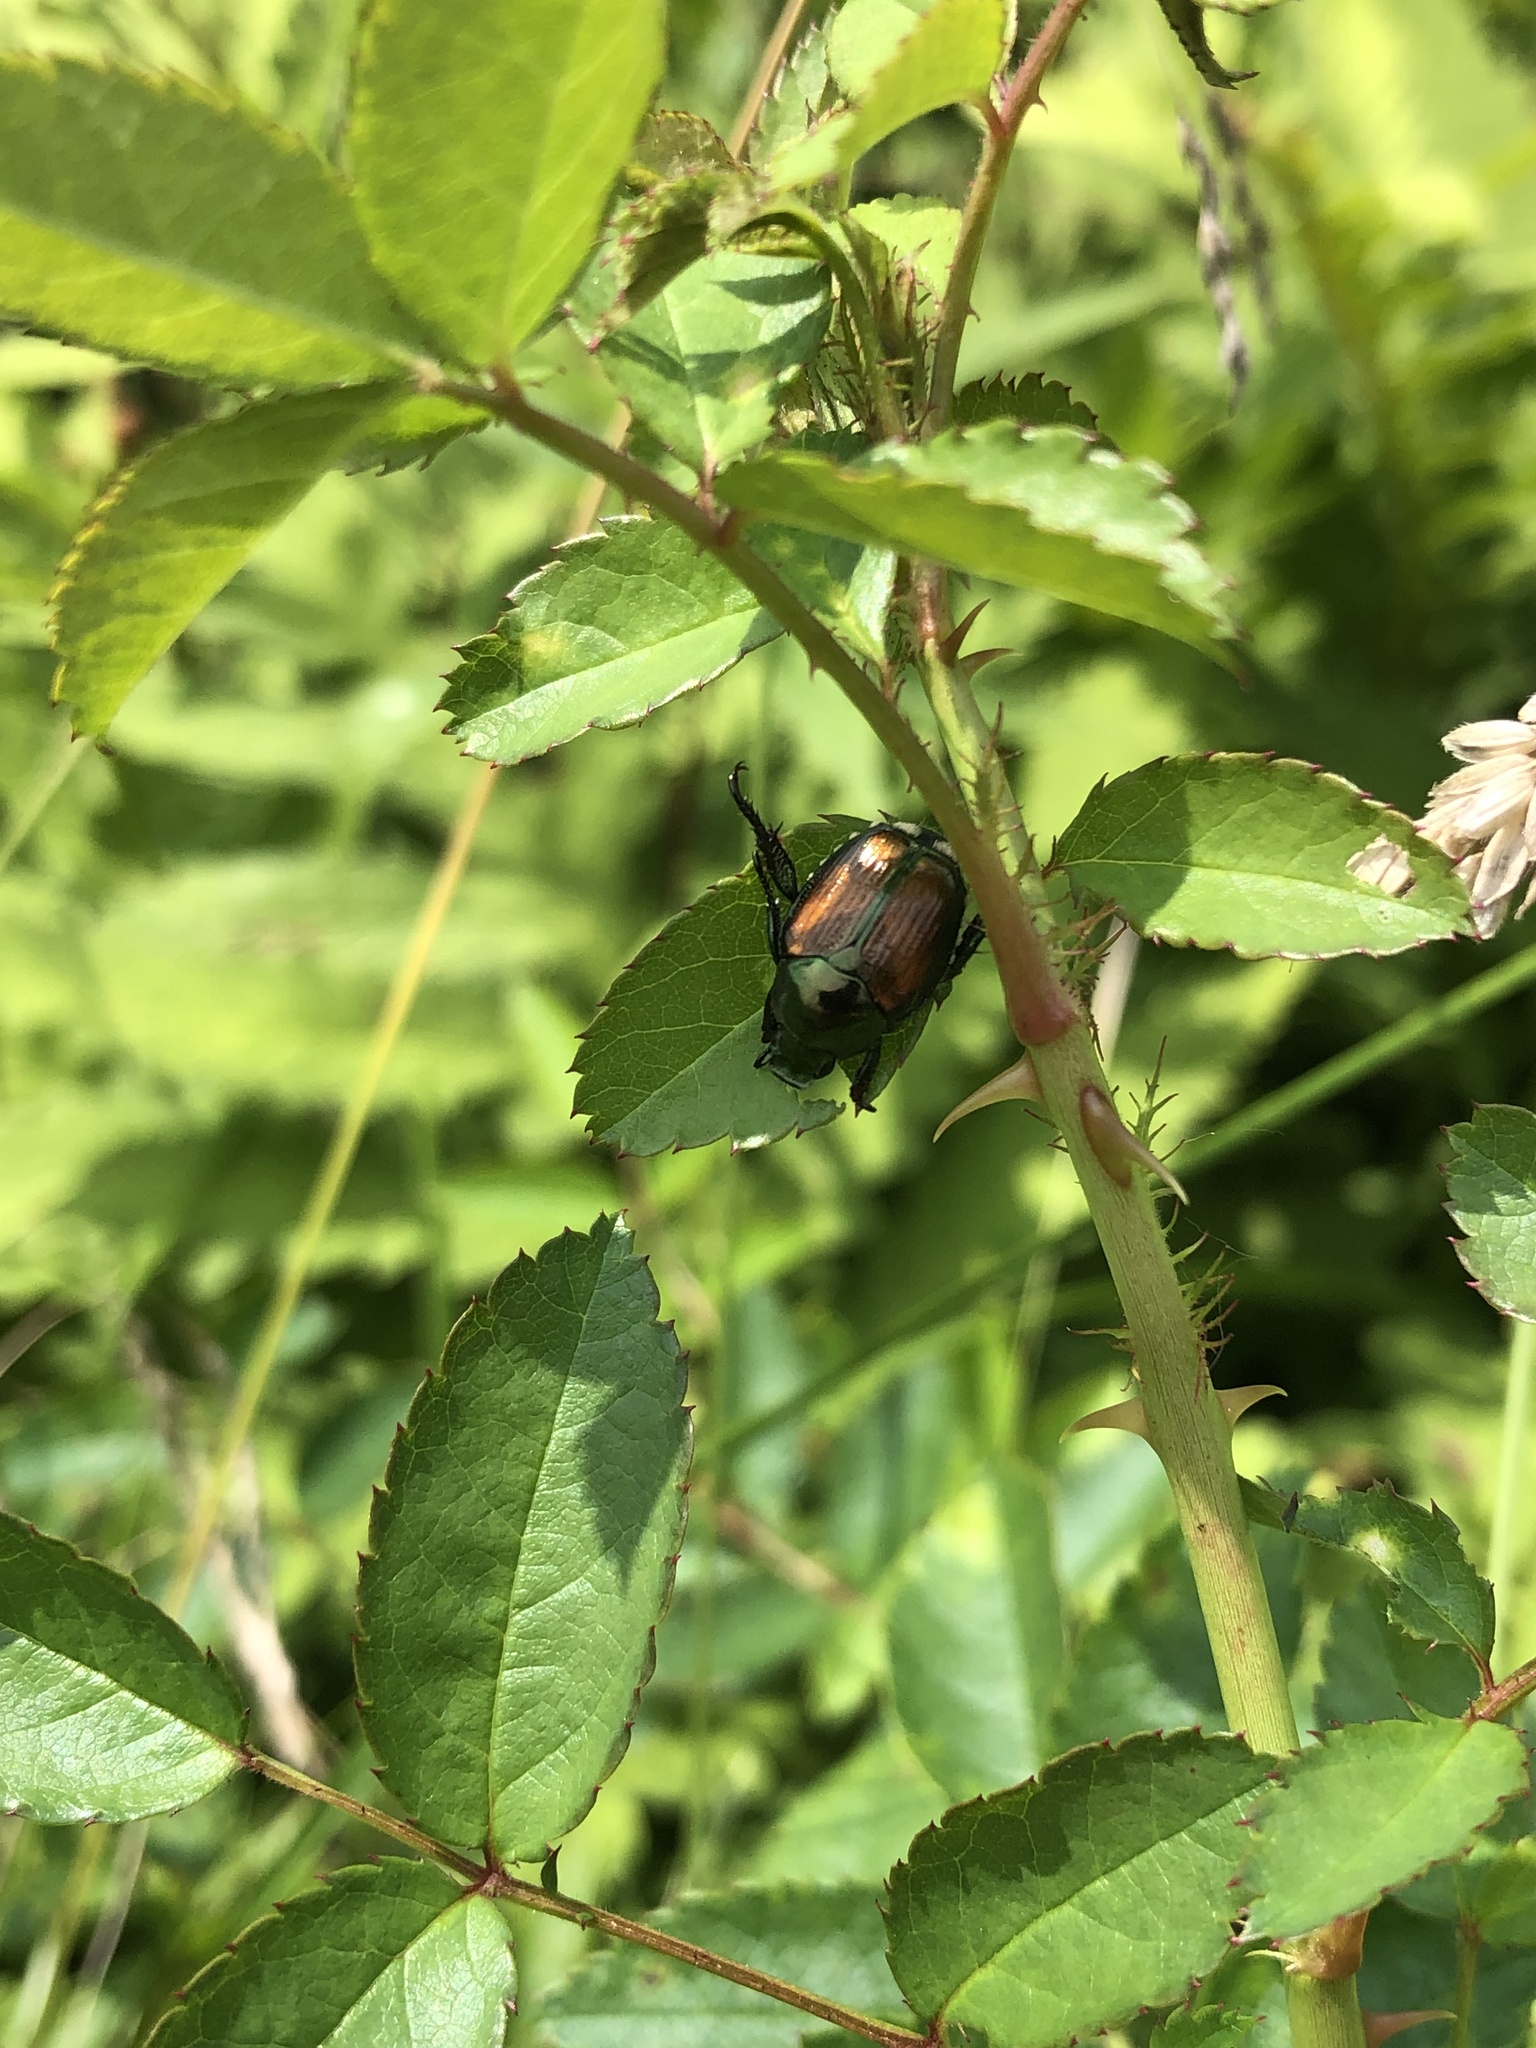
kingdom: Animalia
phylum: Arthropoda
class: Insecta
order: Coleoptera
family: Scarabaeidae
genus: Popillia
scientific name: Popillia japonica
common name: Japanese beetle
